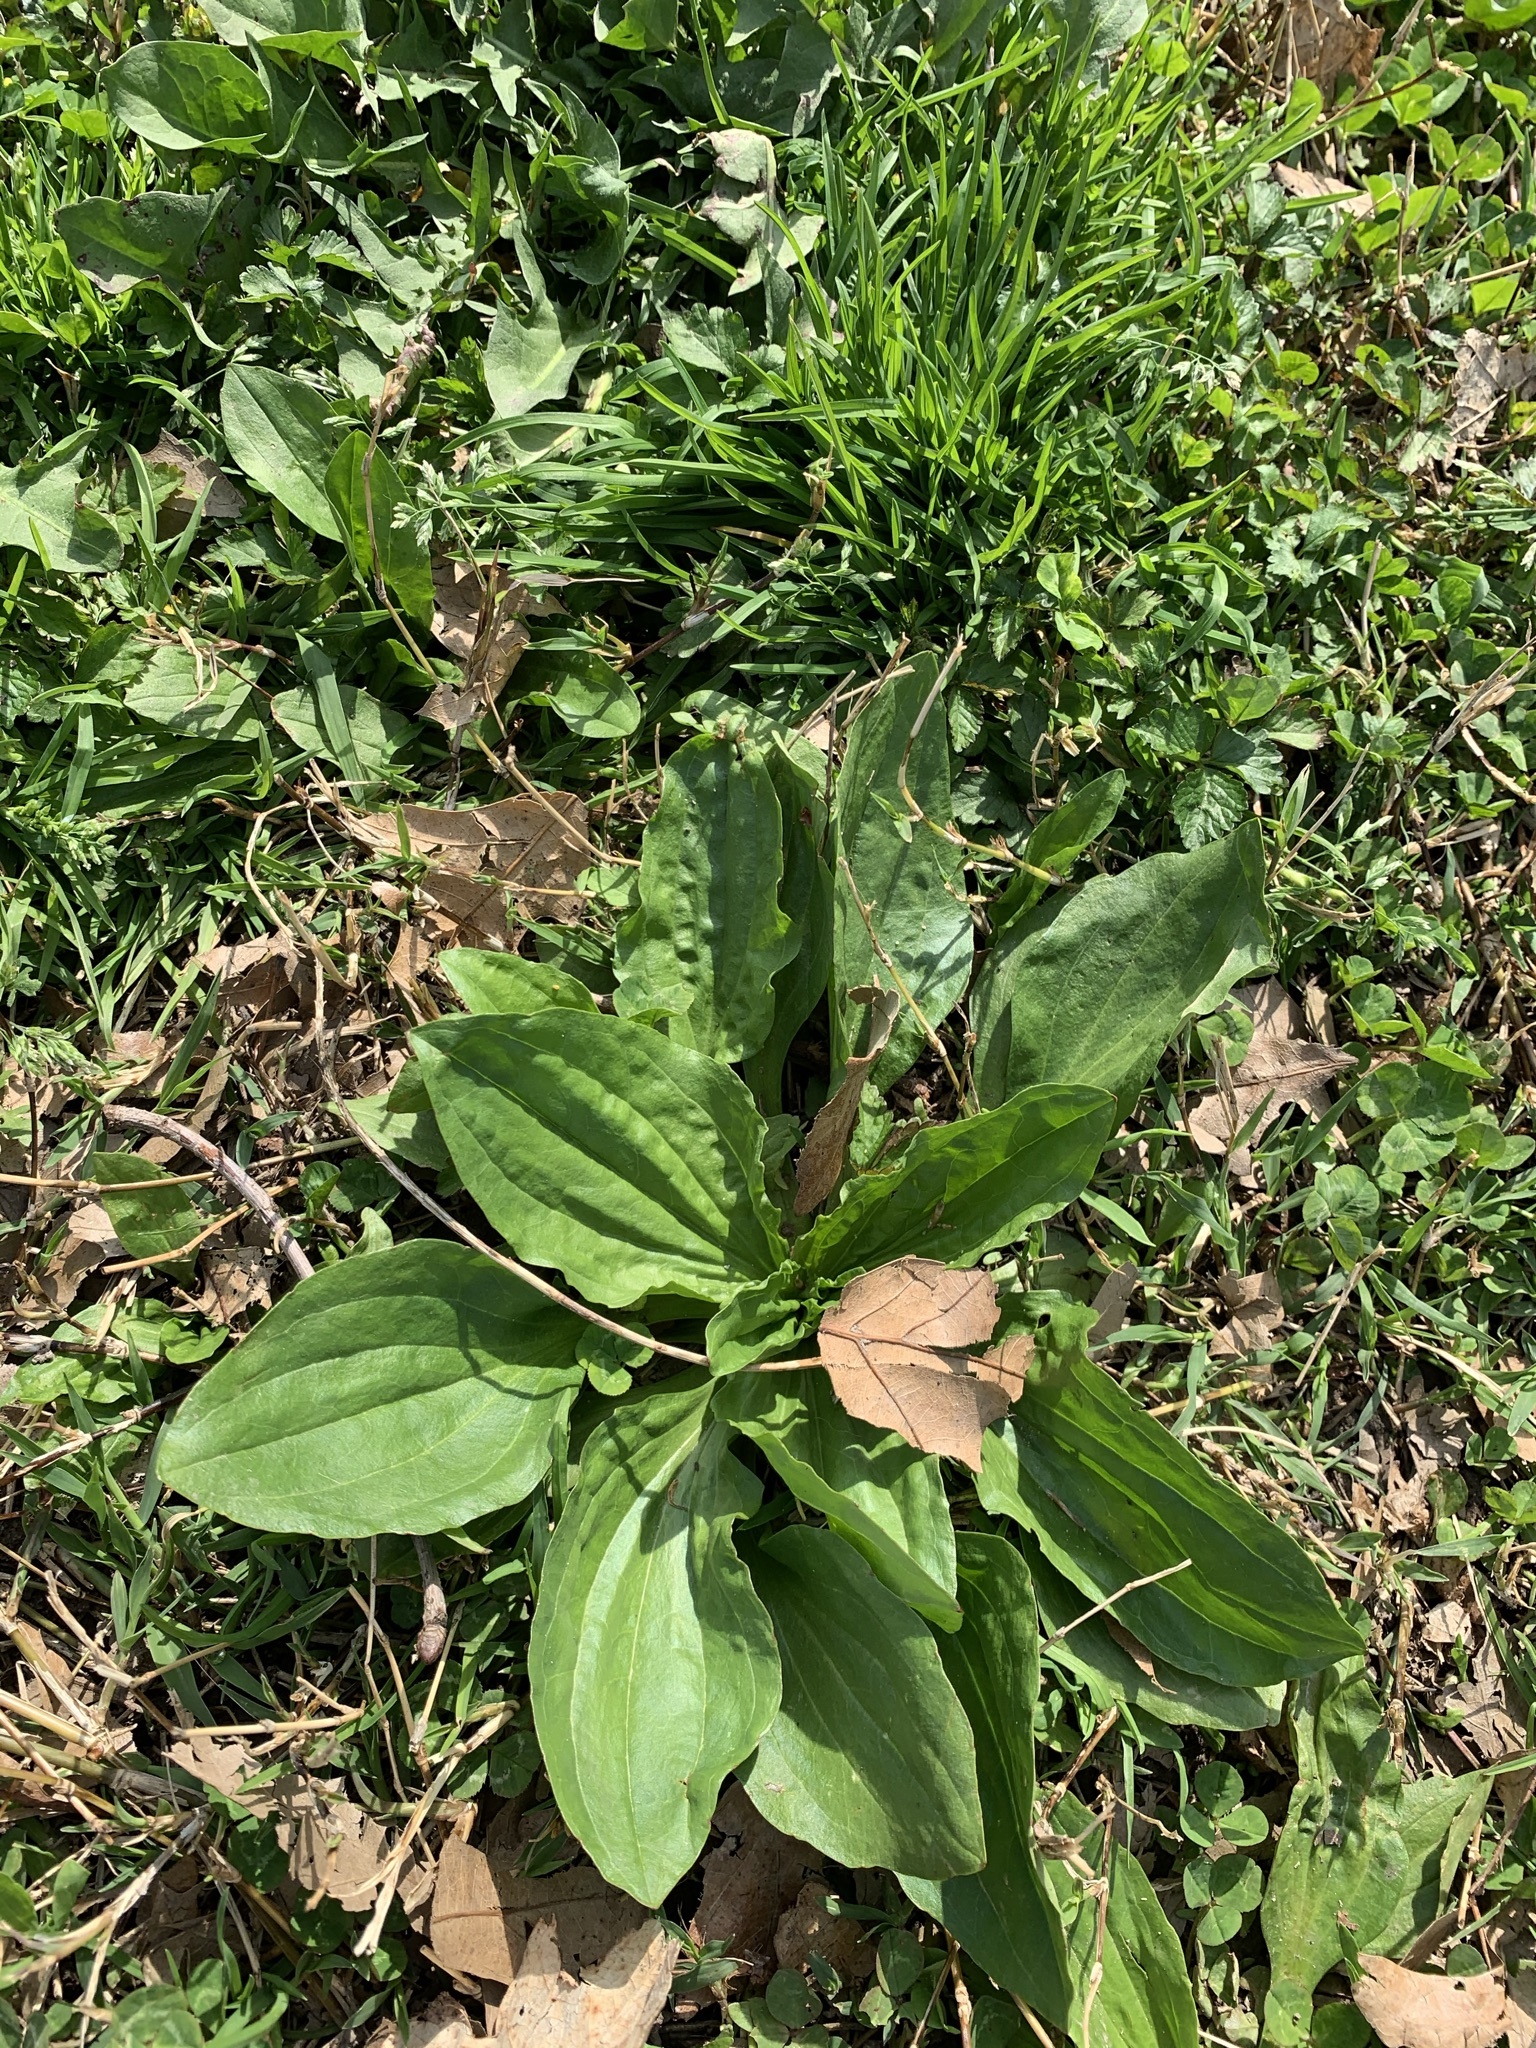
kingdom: Plantae
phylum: Tracheophyta
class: Magnoliopsida
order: Lamiales
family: Plantaginaceae
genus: Plantago
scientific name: Plantago major
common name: Common plantain
